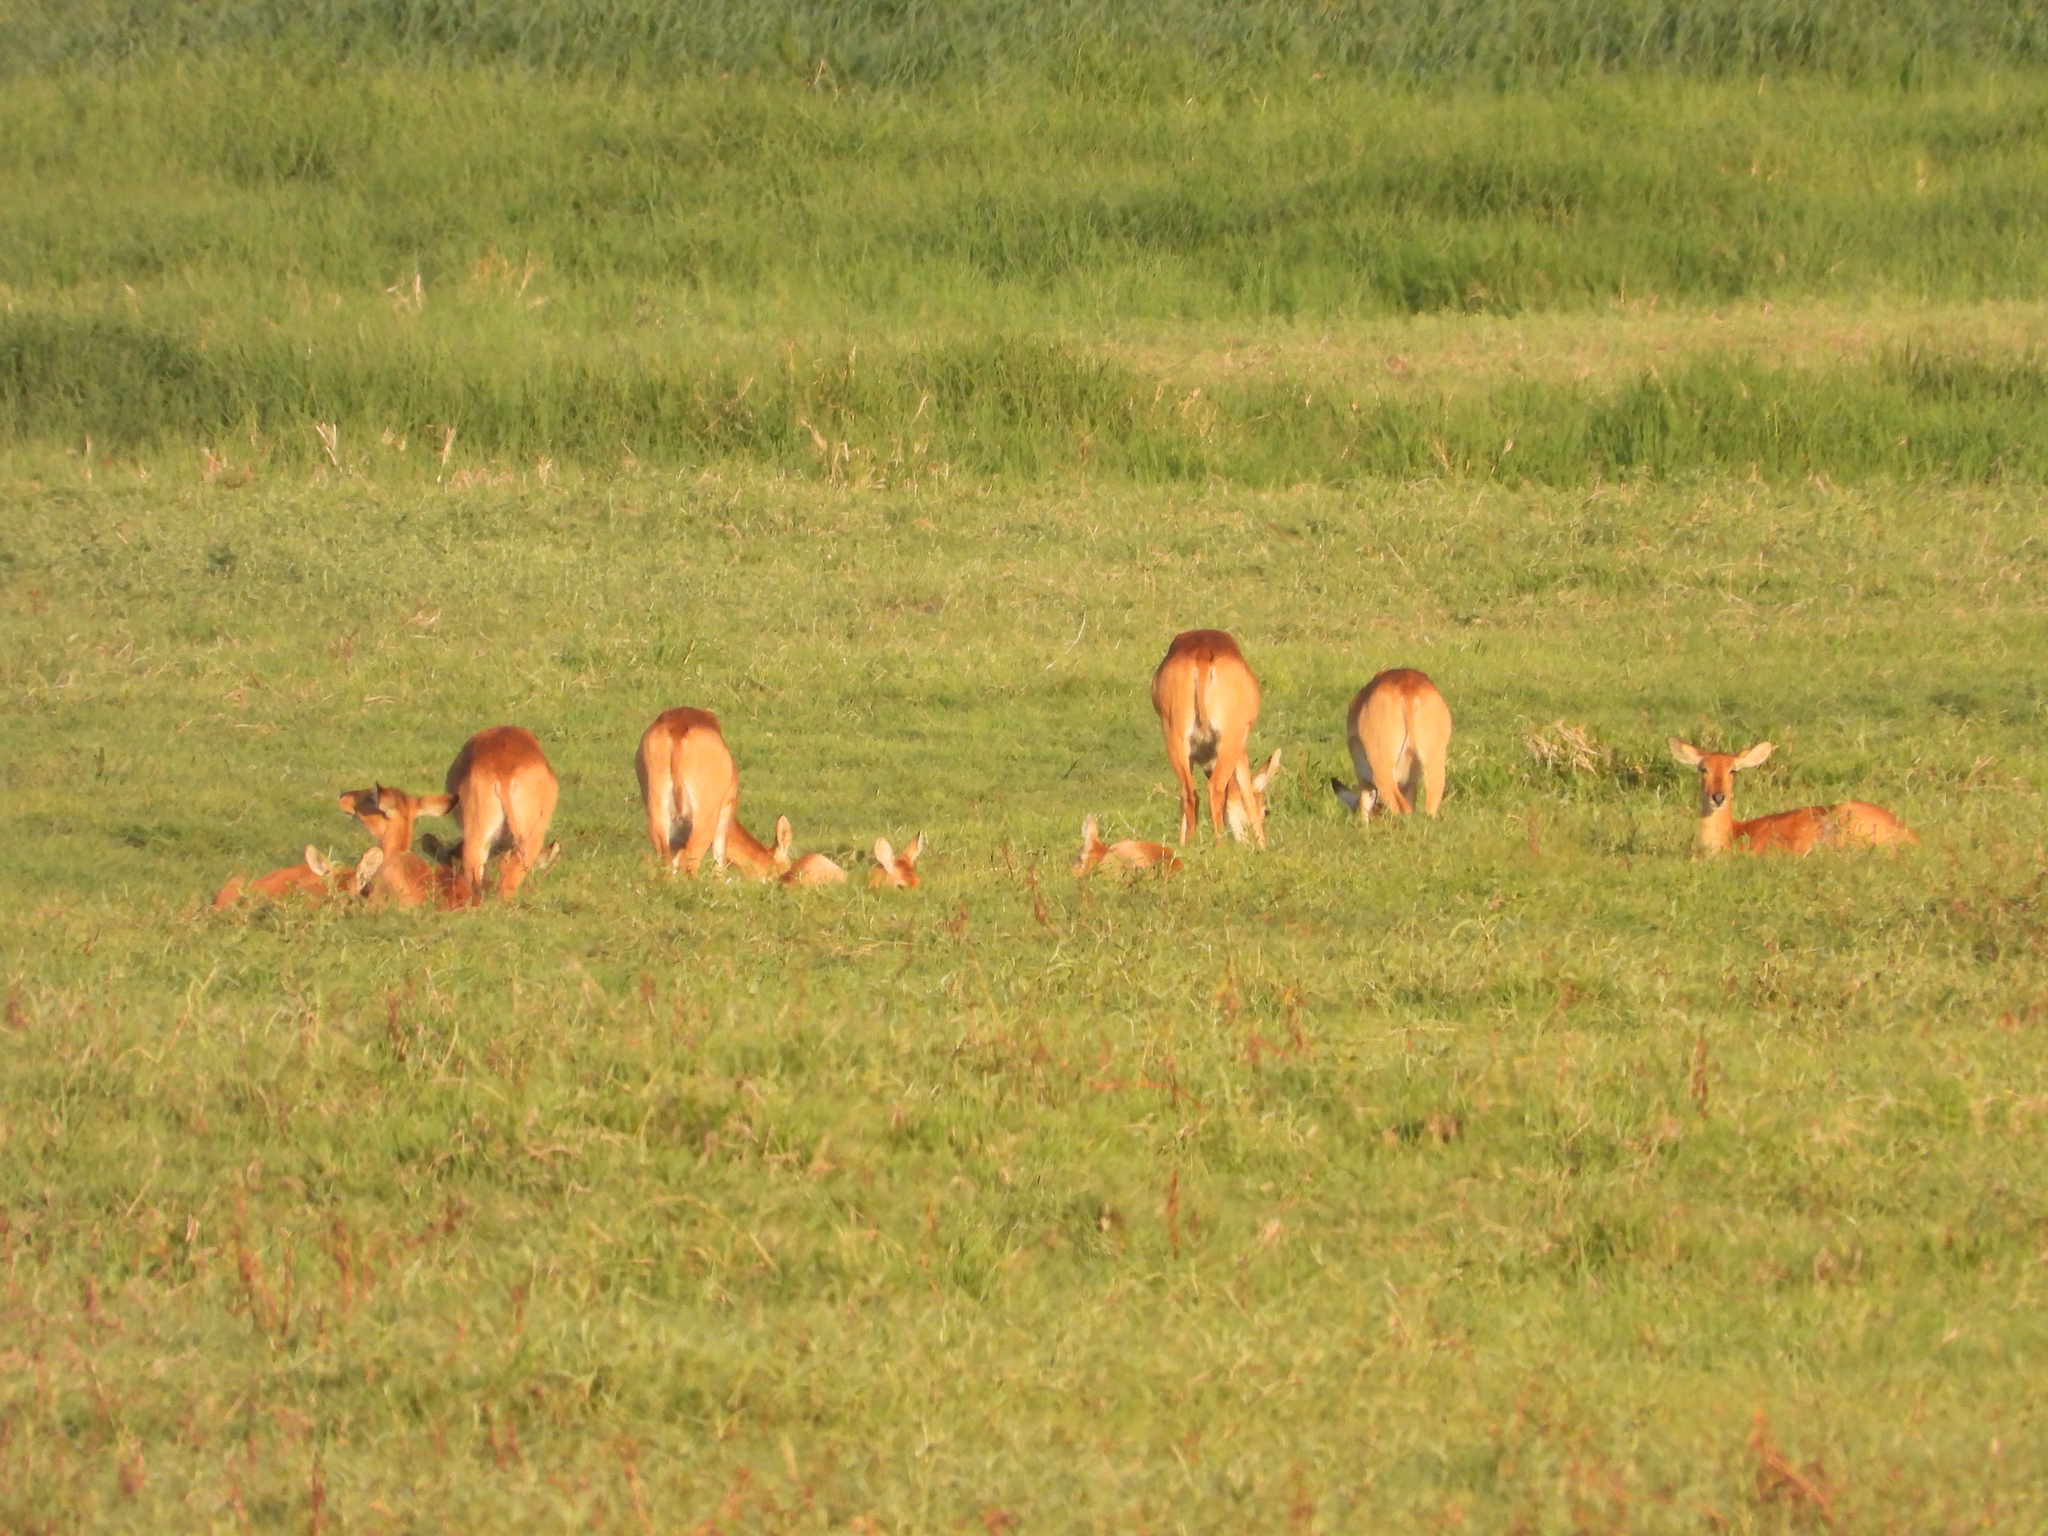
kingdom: Animalia
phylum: Chordata
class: Mammalia
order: Artiodactyla
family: Bovidae
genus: Kobus
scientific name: Kobus vardonii
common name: Puku
